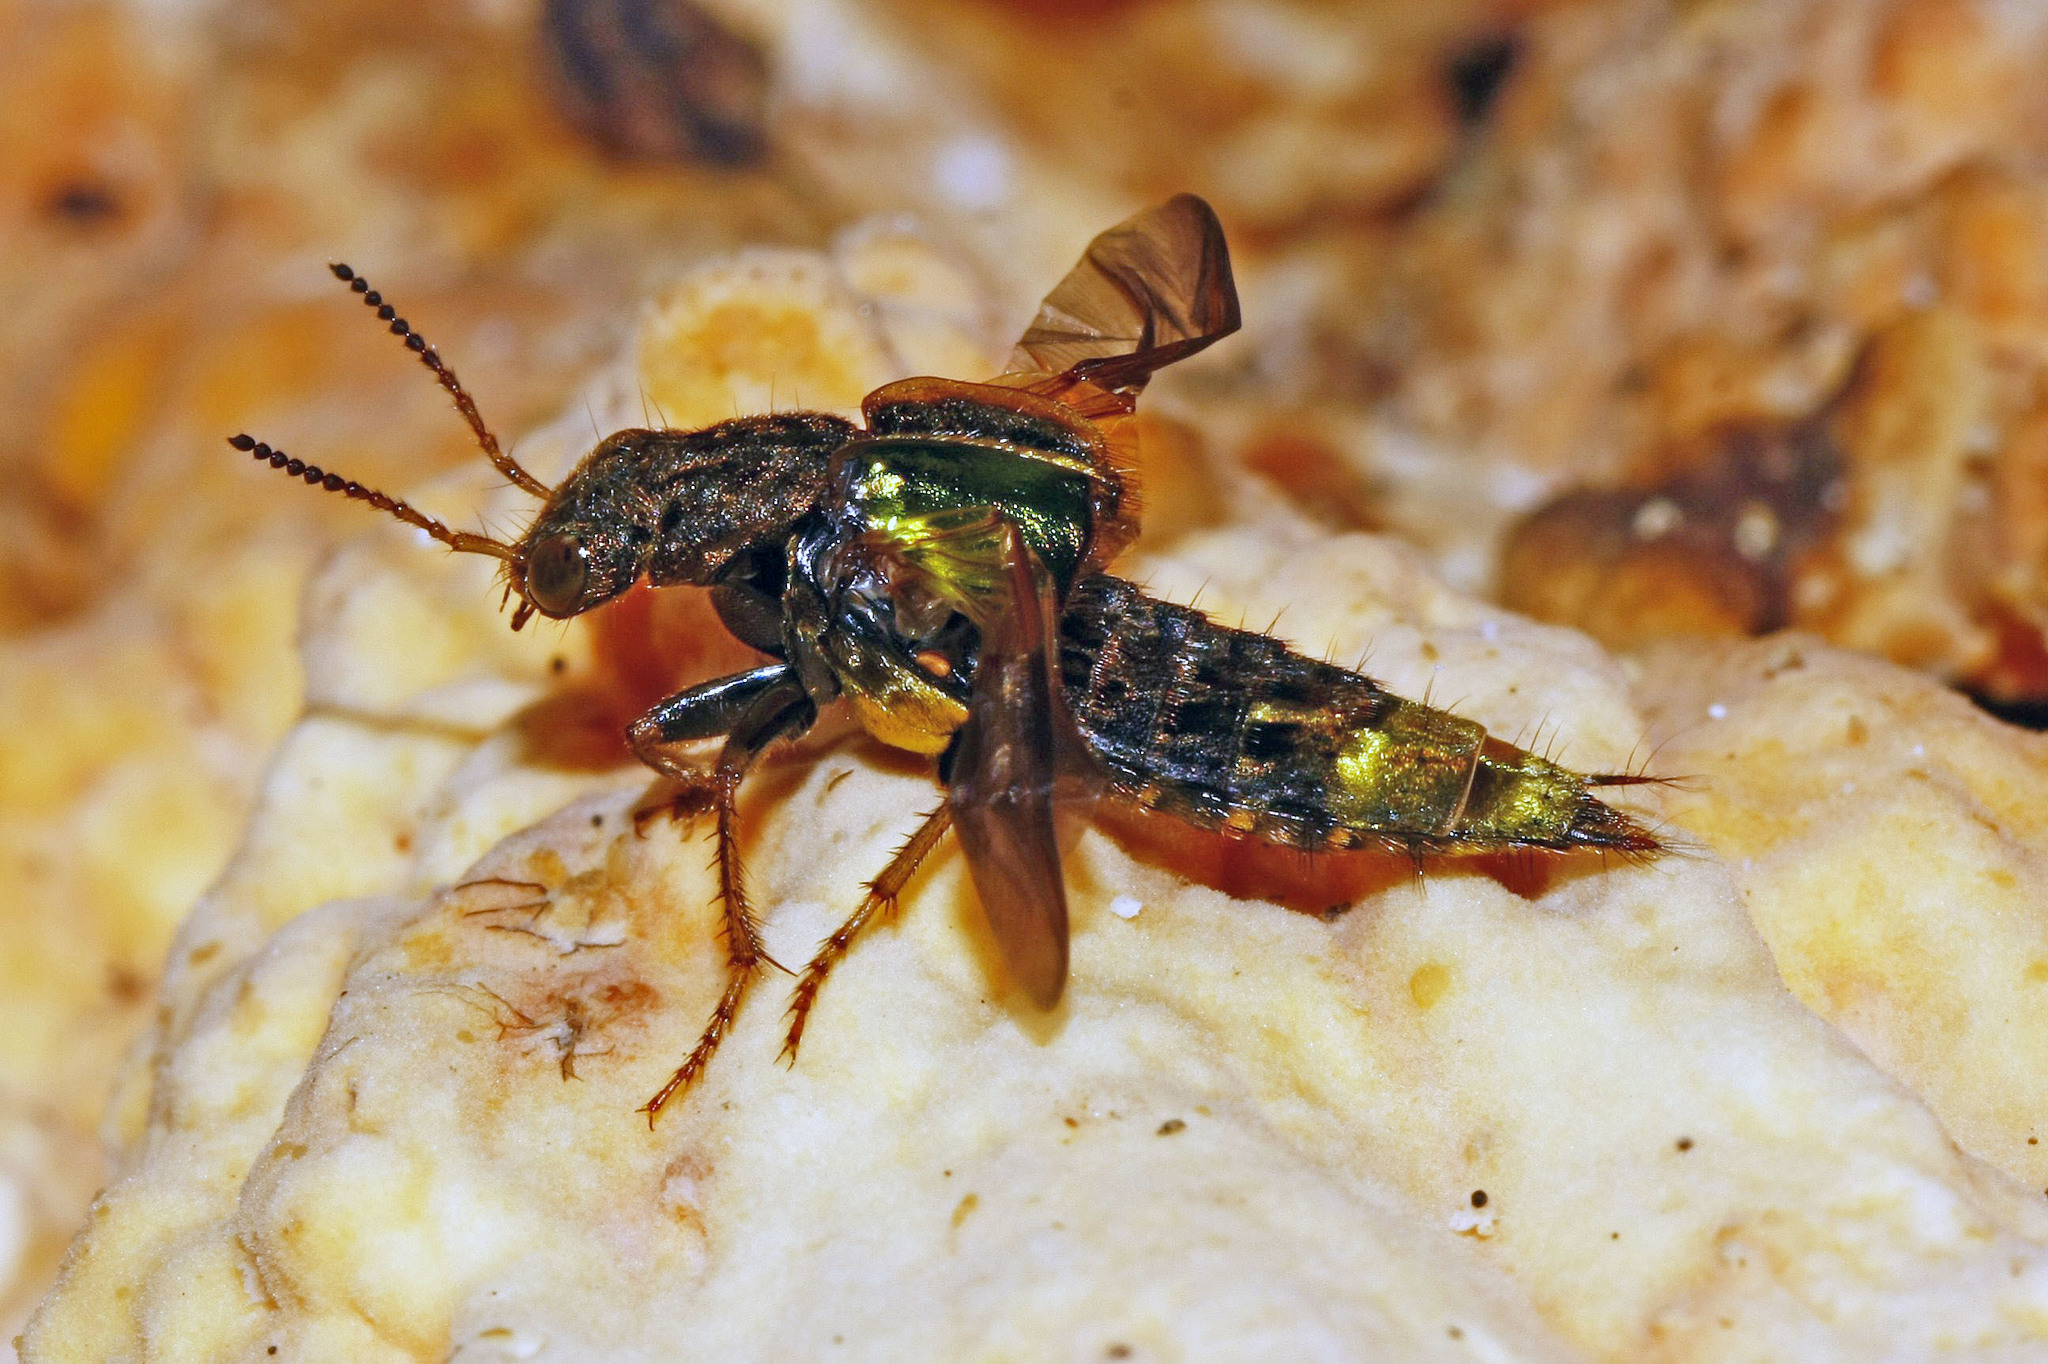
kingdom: Animalia
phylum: Arthropoda
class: Insecta
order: Coleoptera
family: Staphylinidae
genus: Ontholestes
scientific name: Ontholestes cingulatus
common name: Gold-and-brown rove beetle
